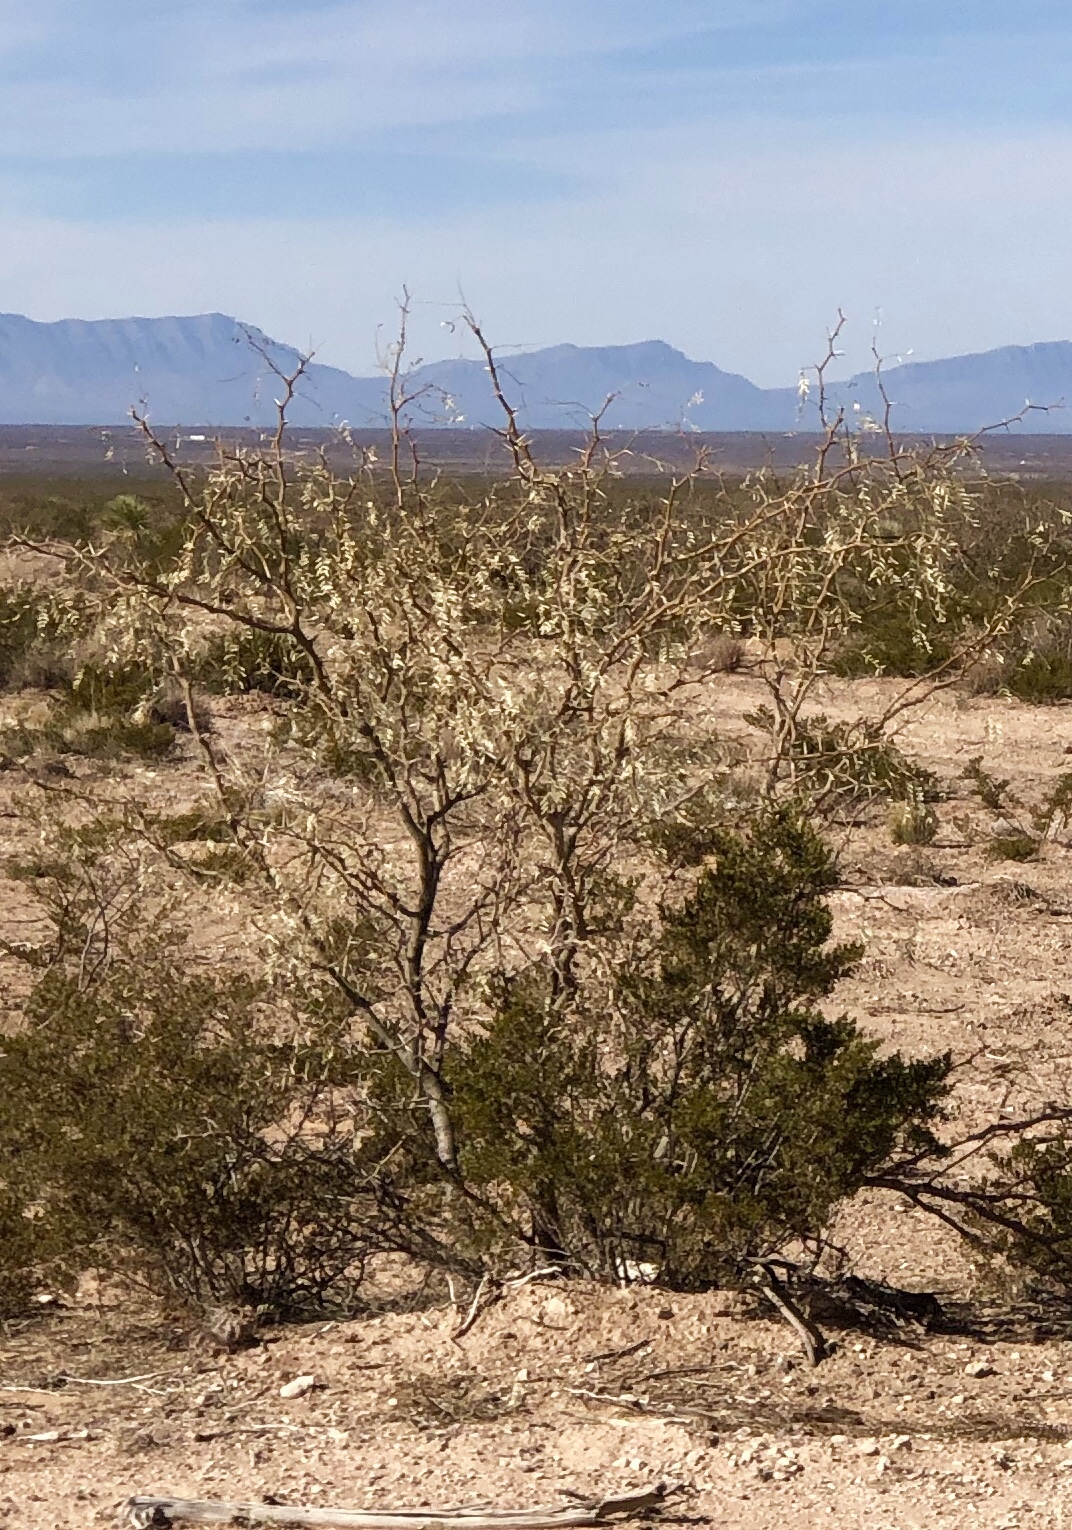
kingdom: Plantae
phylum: Tracheophyta
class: Magnoliopsida
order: Fabales
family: Fabaceae
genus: Prosopis
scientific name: Prosopis glandulosa
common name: Honey mesquite
